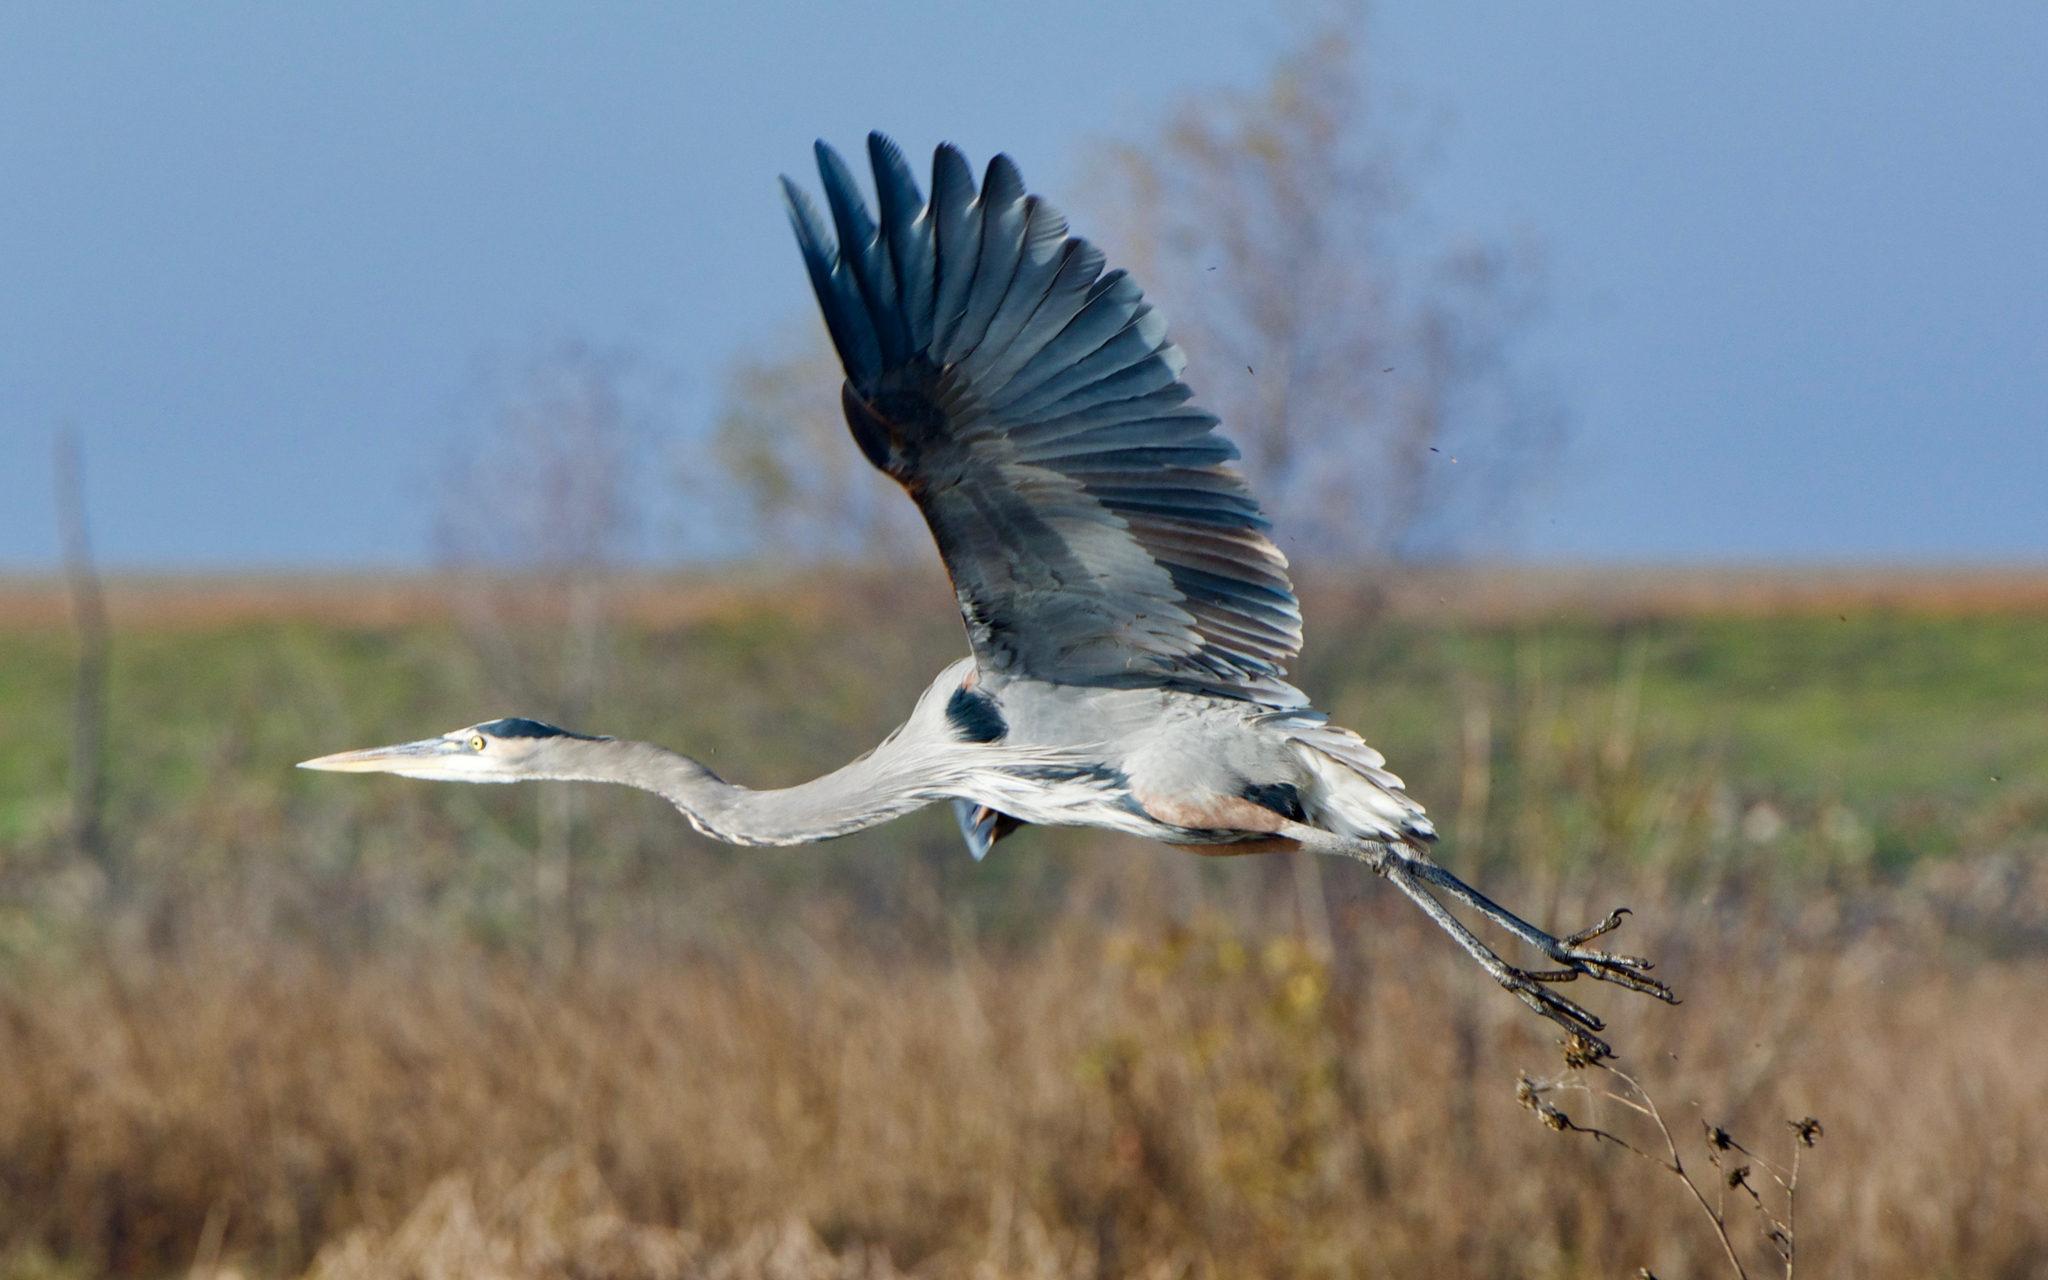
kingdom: Animalia
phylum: Chordata
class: Aves
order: Pelecaniformes
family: Ardeidae
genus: Ardea
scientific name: Ardea herodias
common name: Great blue heron
